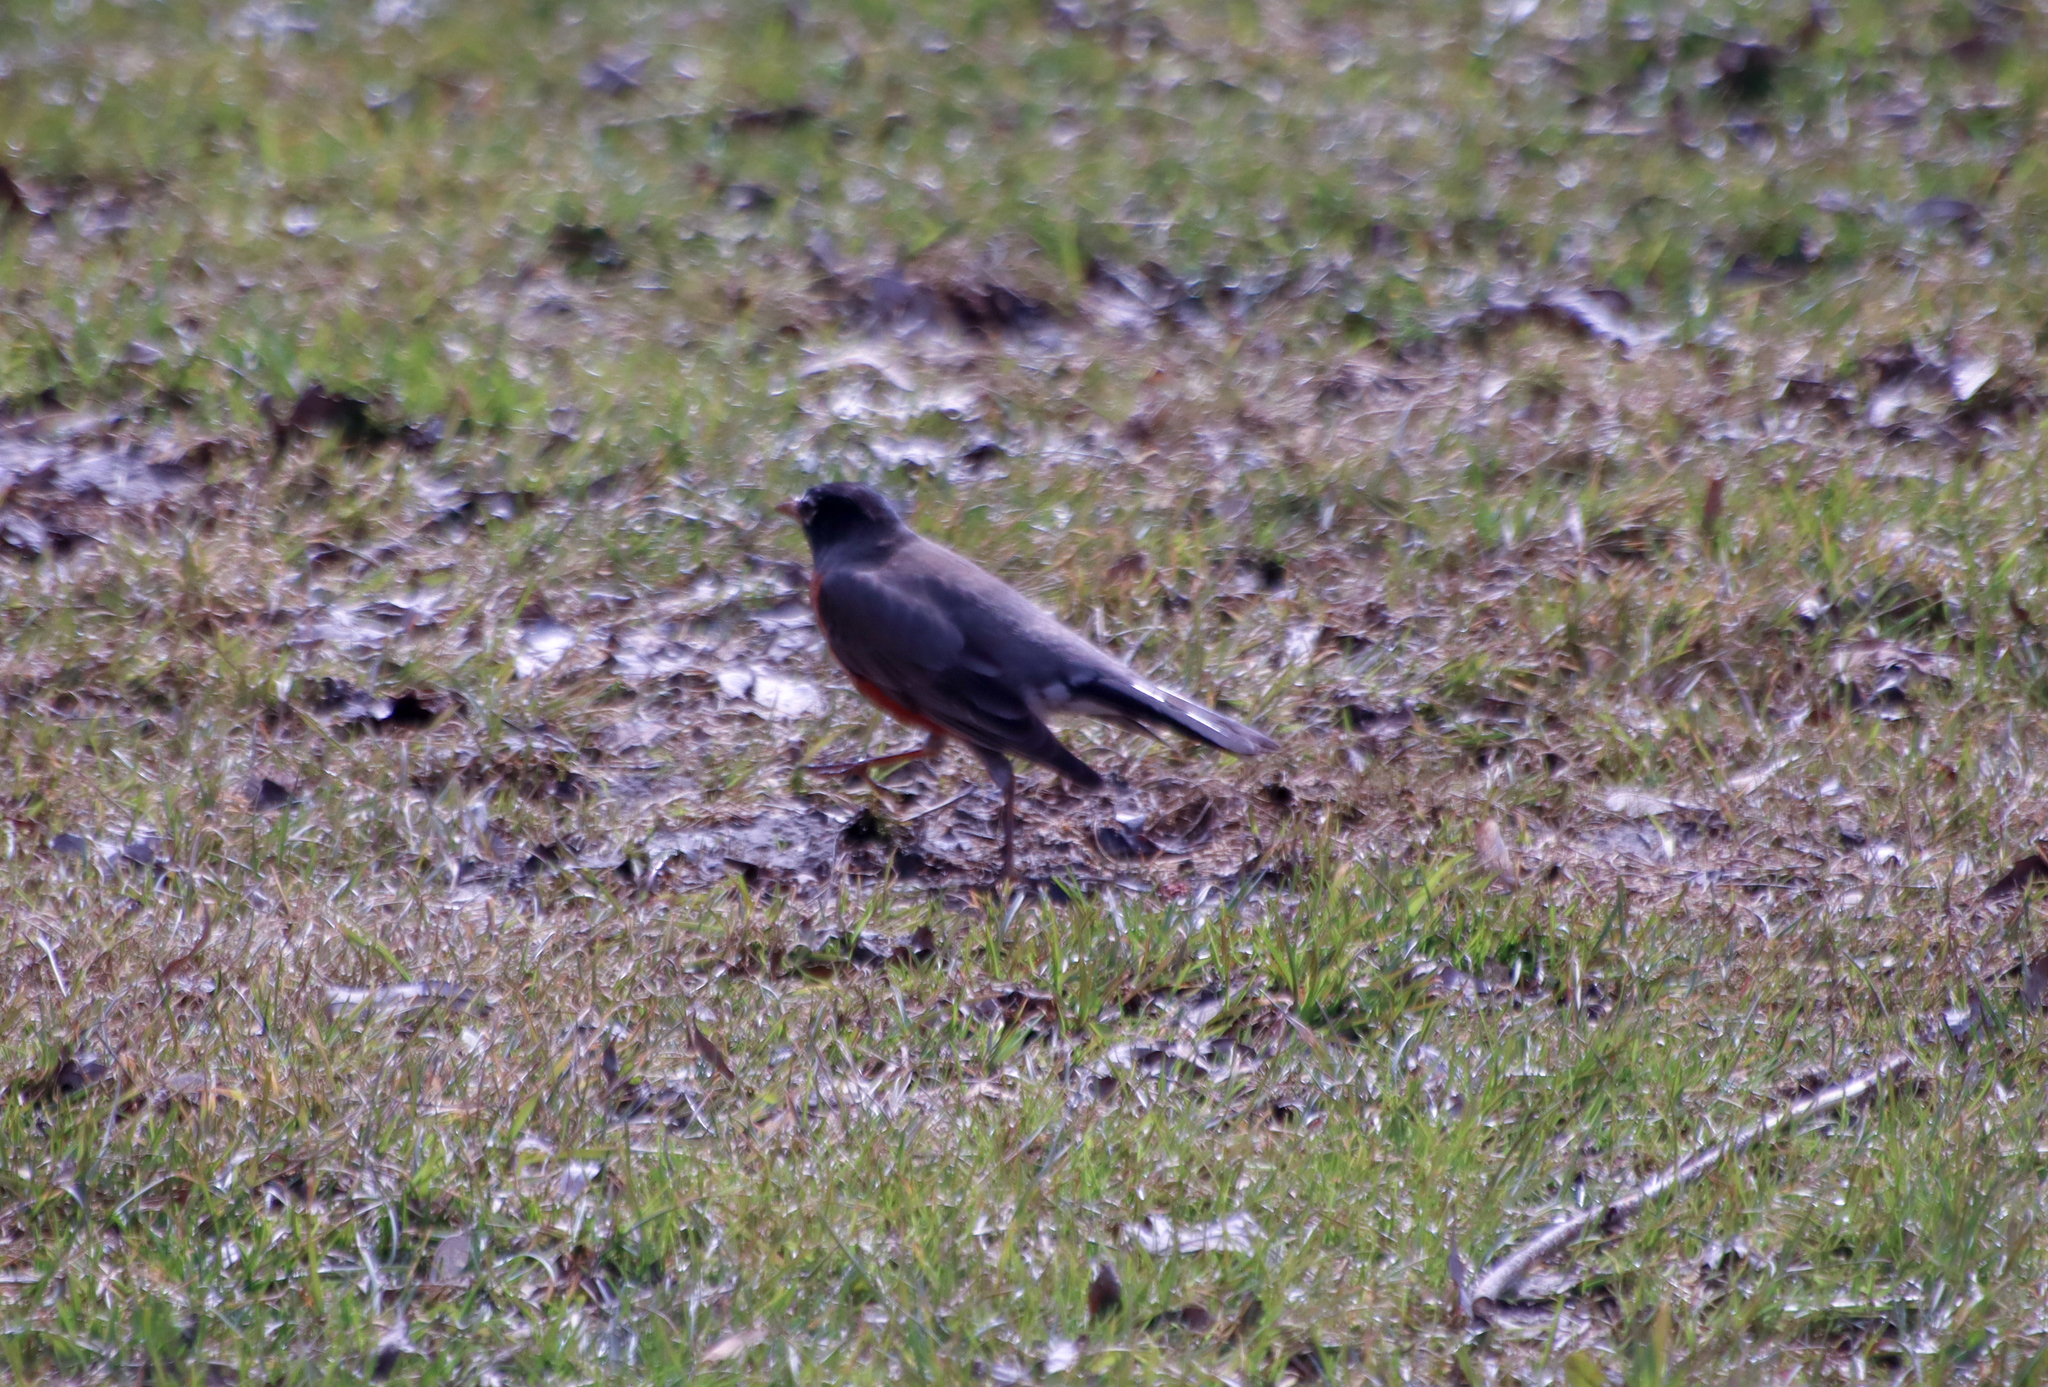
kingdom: Animalia
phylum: Chordata
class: Aves
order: Passeriformes
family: Turdidae
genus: Turdus
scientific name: Turdus migratorius
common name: American robin
